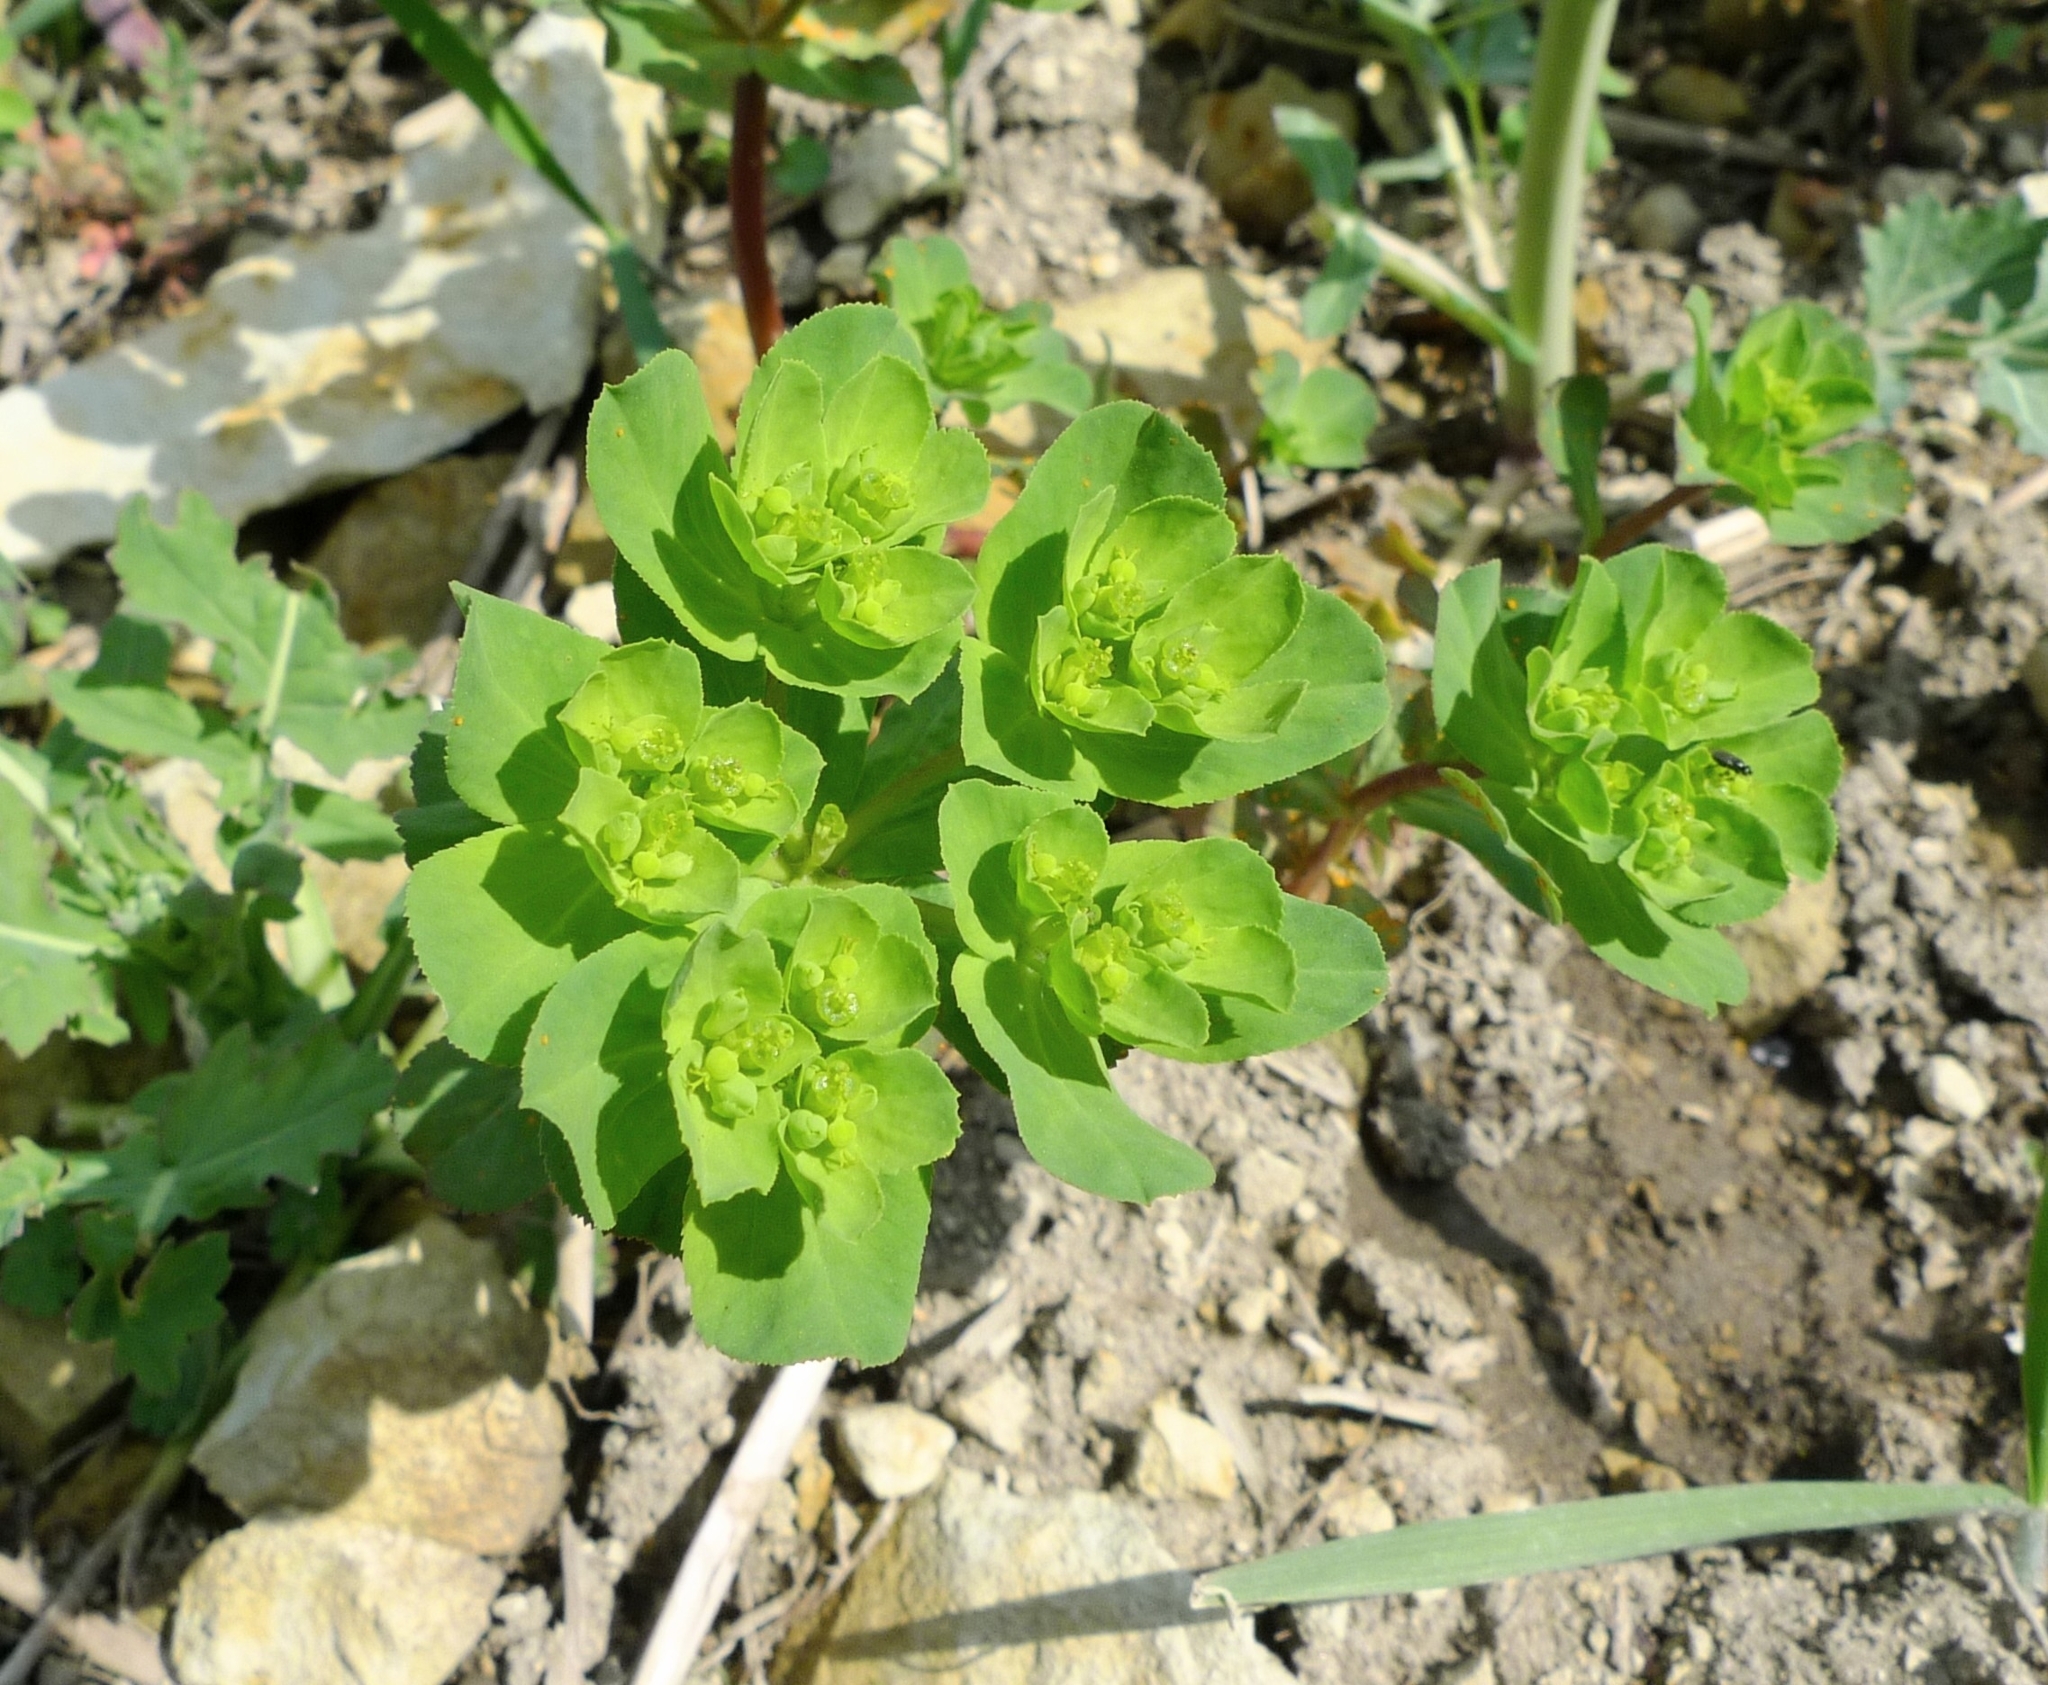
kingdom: Plantae
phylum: Tracheophyta
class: Magnoliopsida
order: Malpighiales
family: Euphorbiaceae
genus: Euphorbia
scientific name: Euphorbia helioscopia
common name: Sun spurge
